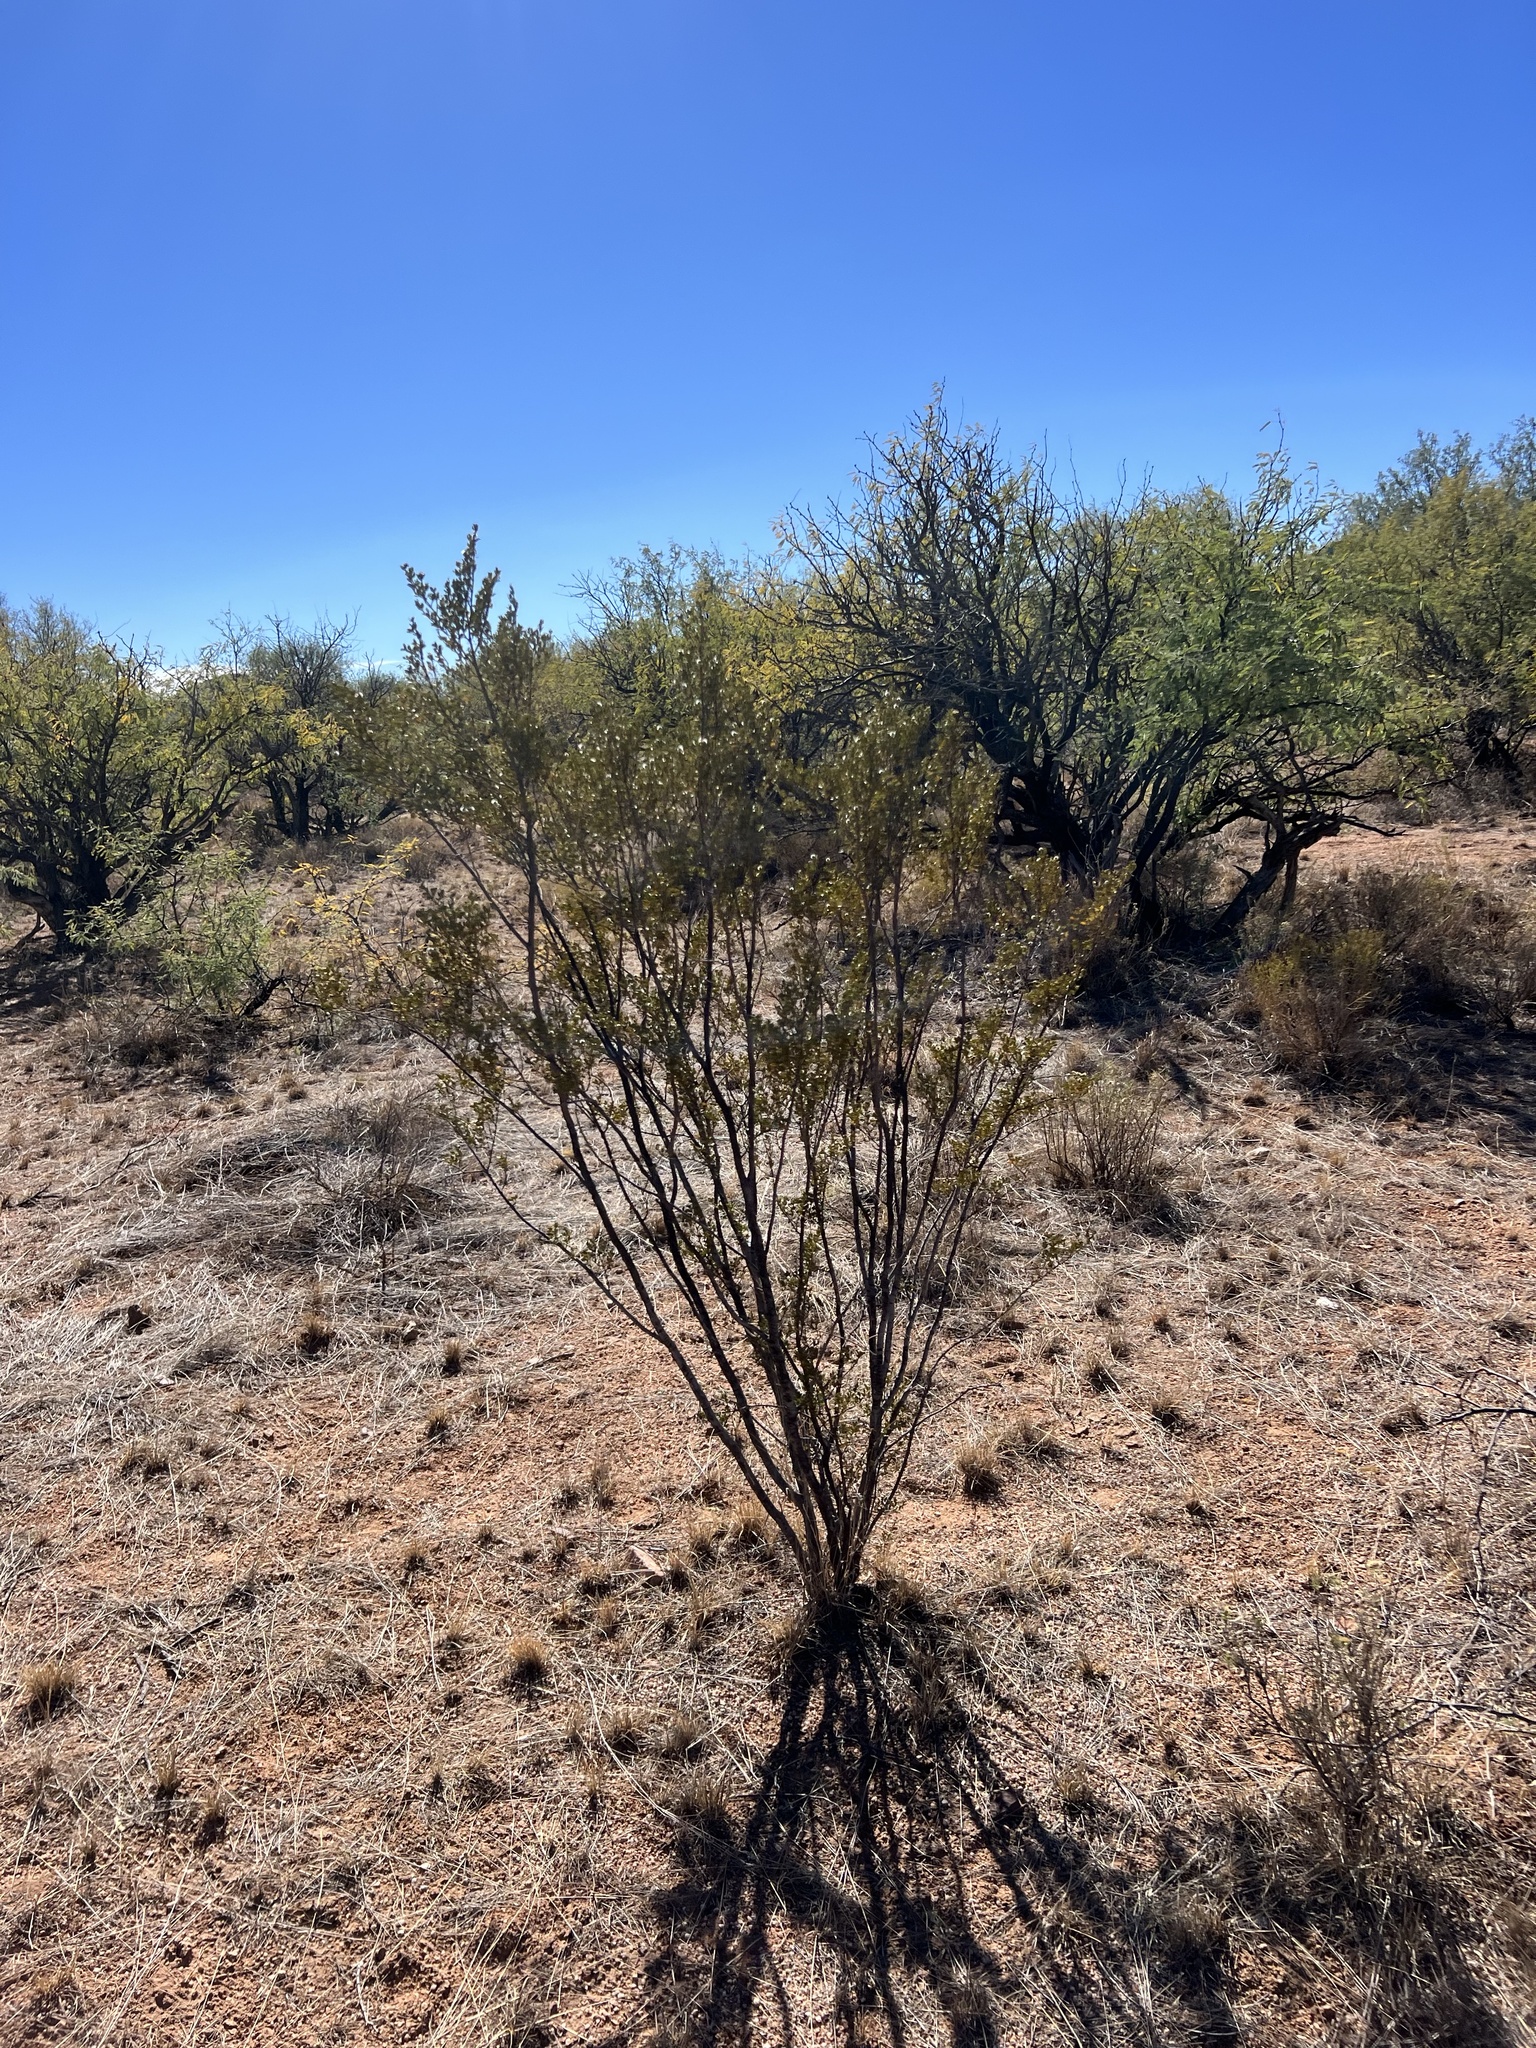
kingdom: Plantae
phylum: Tracheophyta
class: Magnoliopsida
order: Zygophyllales
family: Zygophyllaceae
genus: Larrea
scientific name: Larrea tridentata
